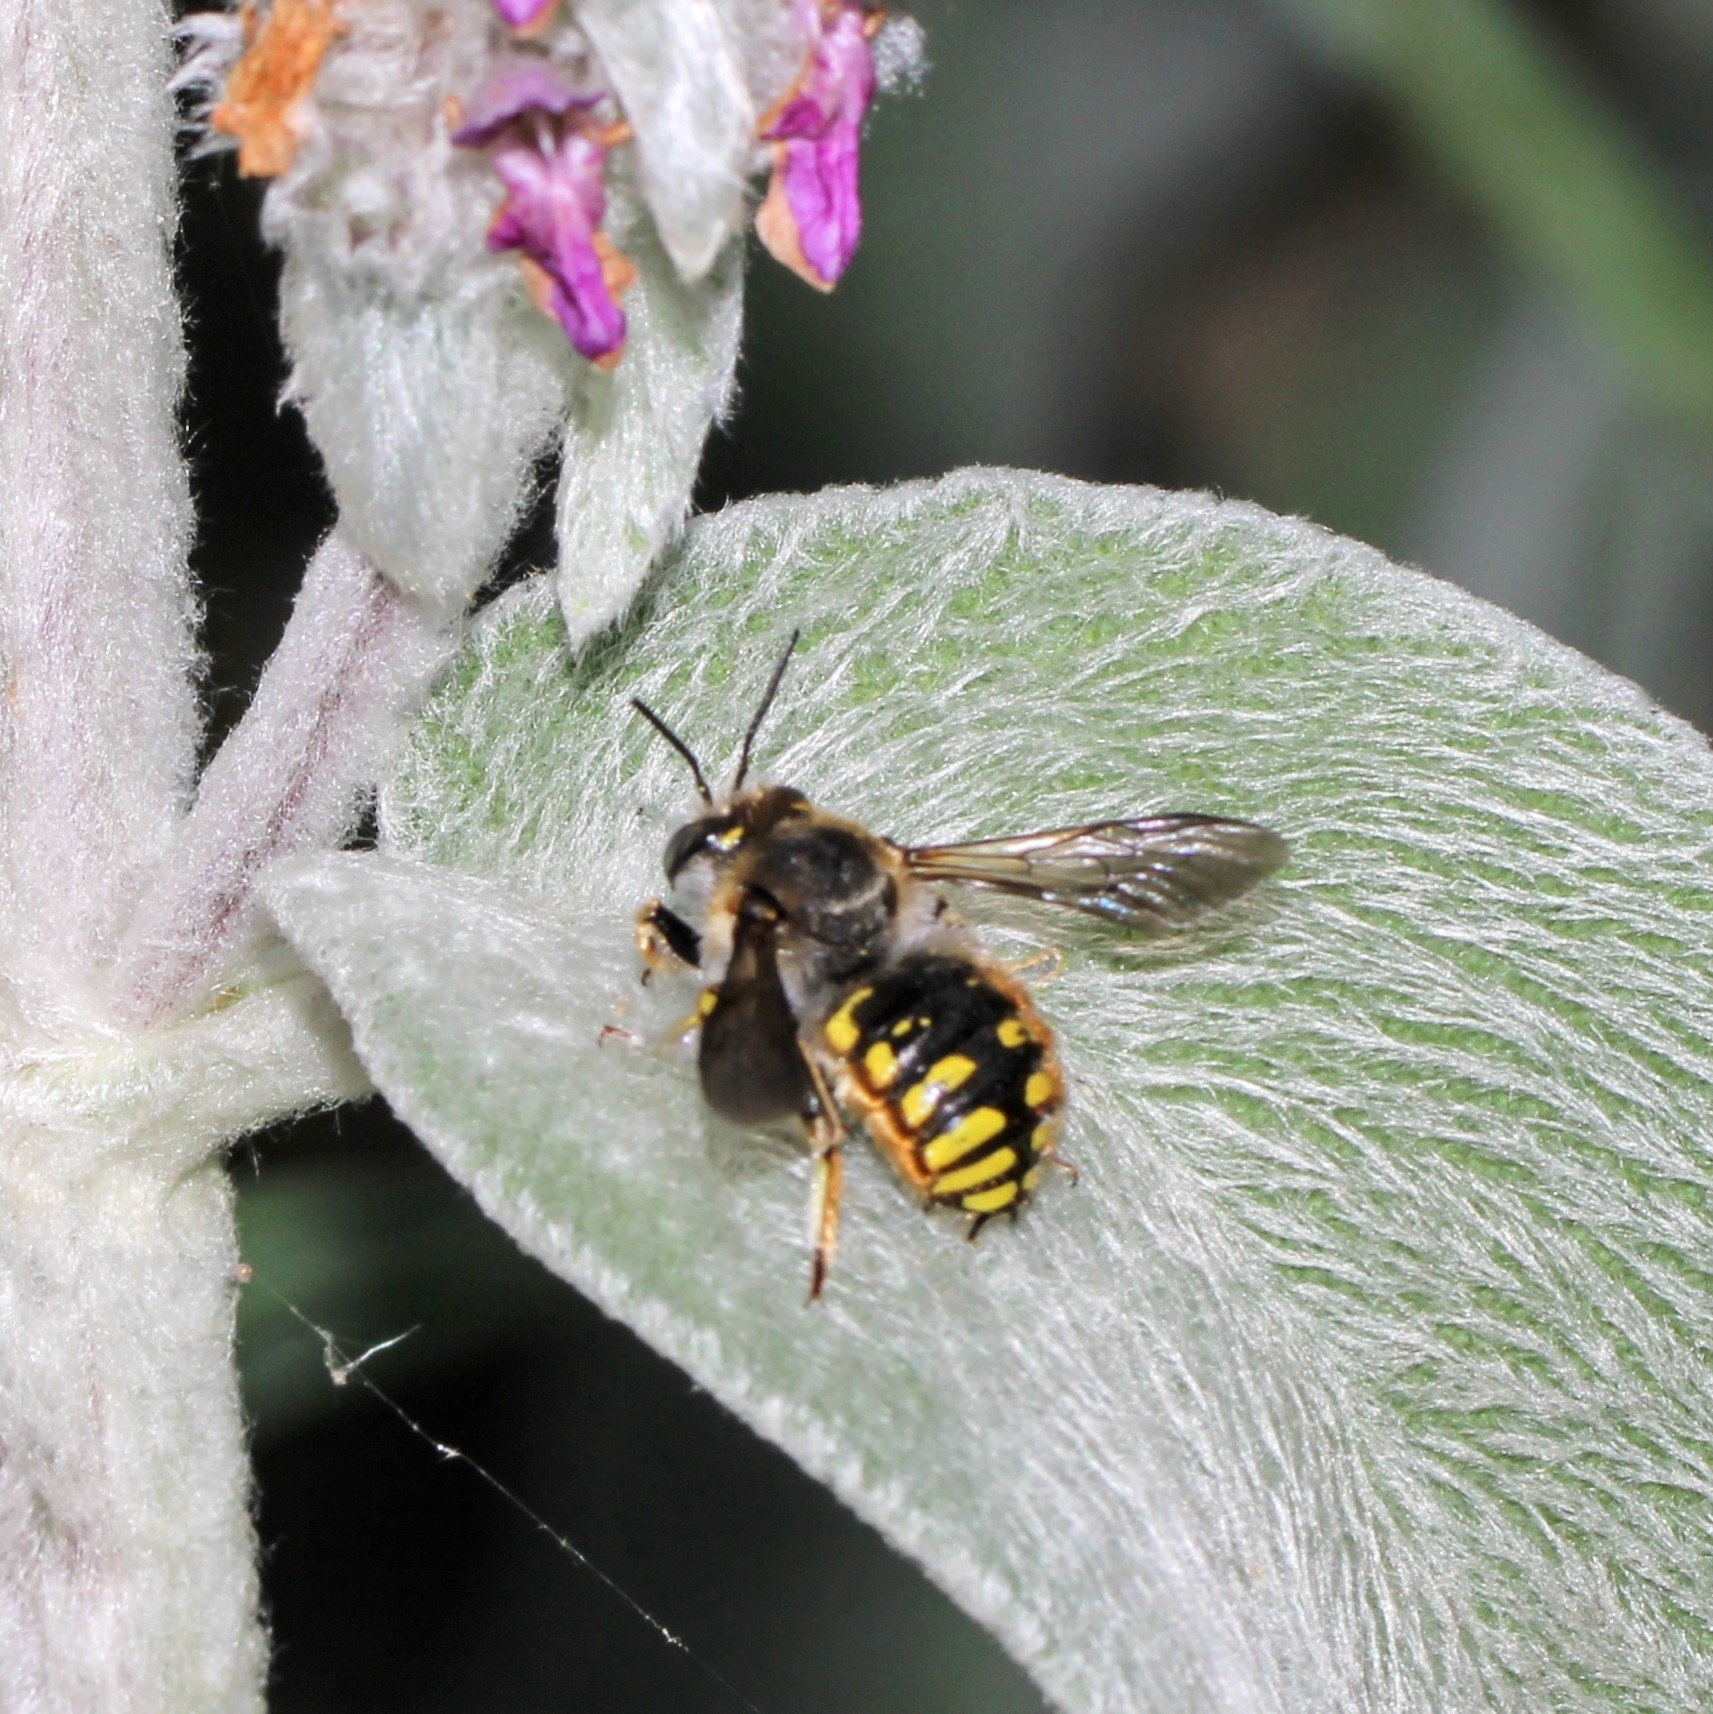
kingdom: Animalia
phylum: Arthropoda
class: Insecta
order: Hymenoptera
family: Megachilidae
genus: Anthidium
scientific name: Anthidium manicatum
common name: Wool carder bee
